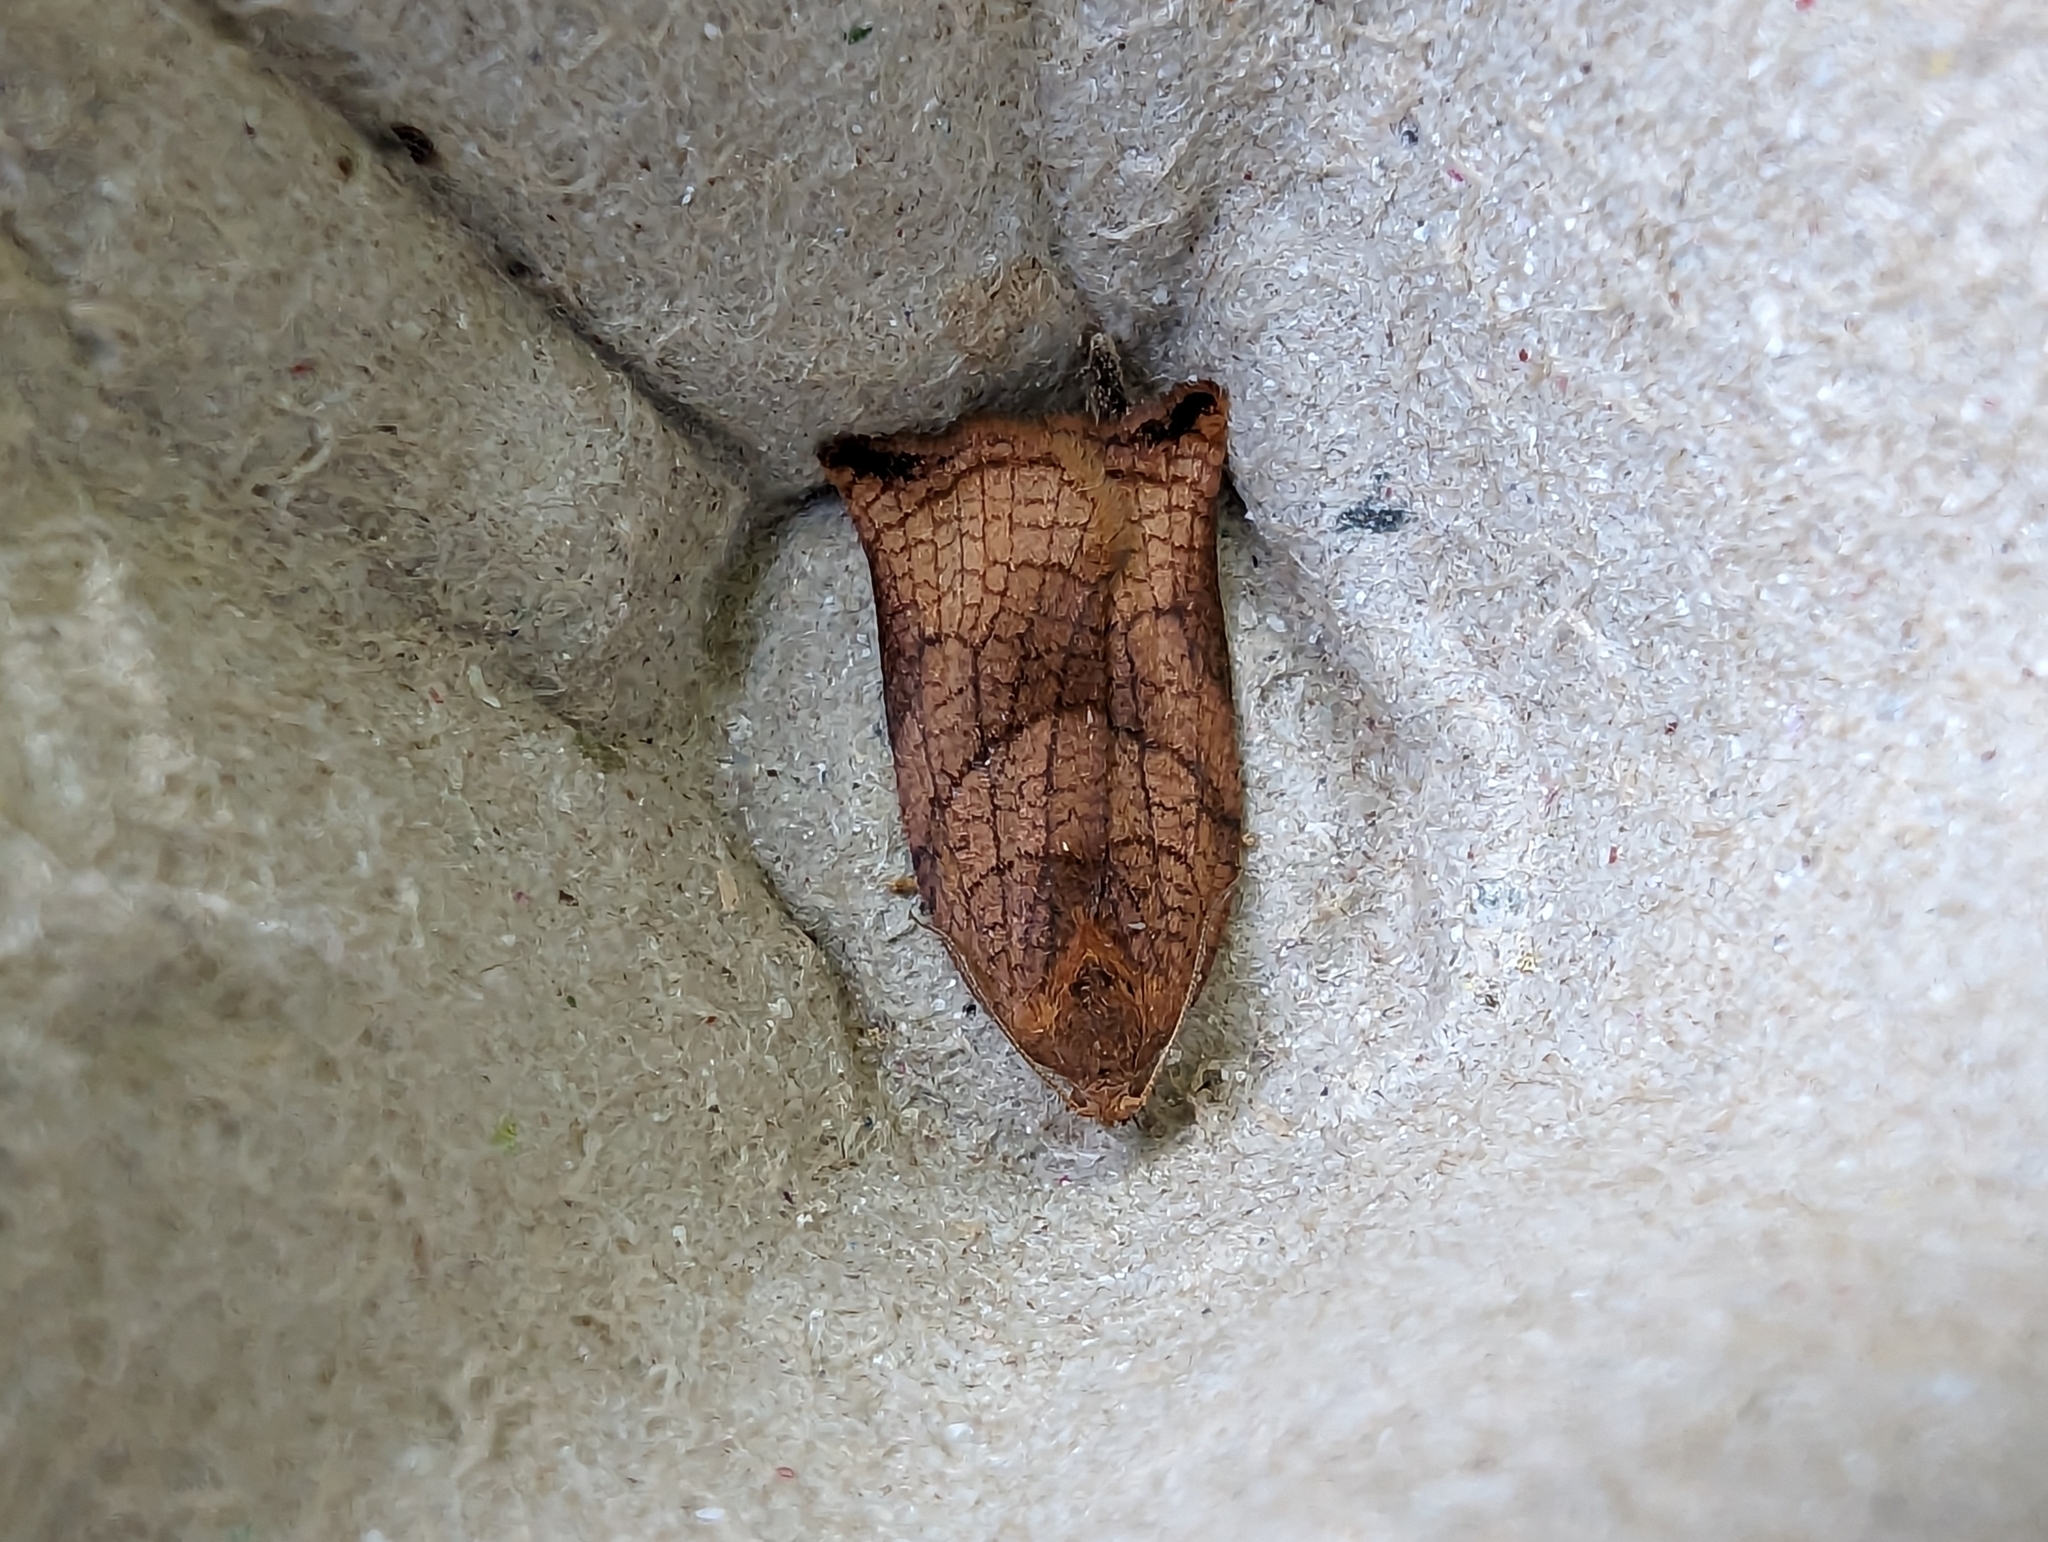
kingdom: Animalia
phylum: Arthropoda
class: Insecta
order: Lepidoptera
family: Tortricidae
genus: Archips
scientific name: Archips podana
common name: Large fruit-tree tortrix
